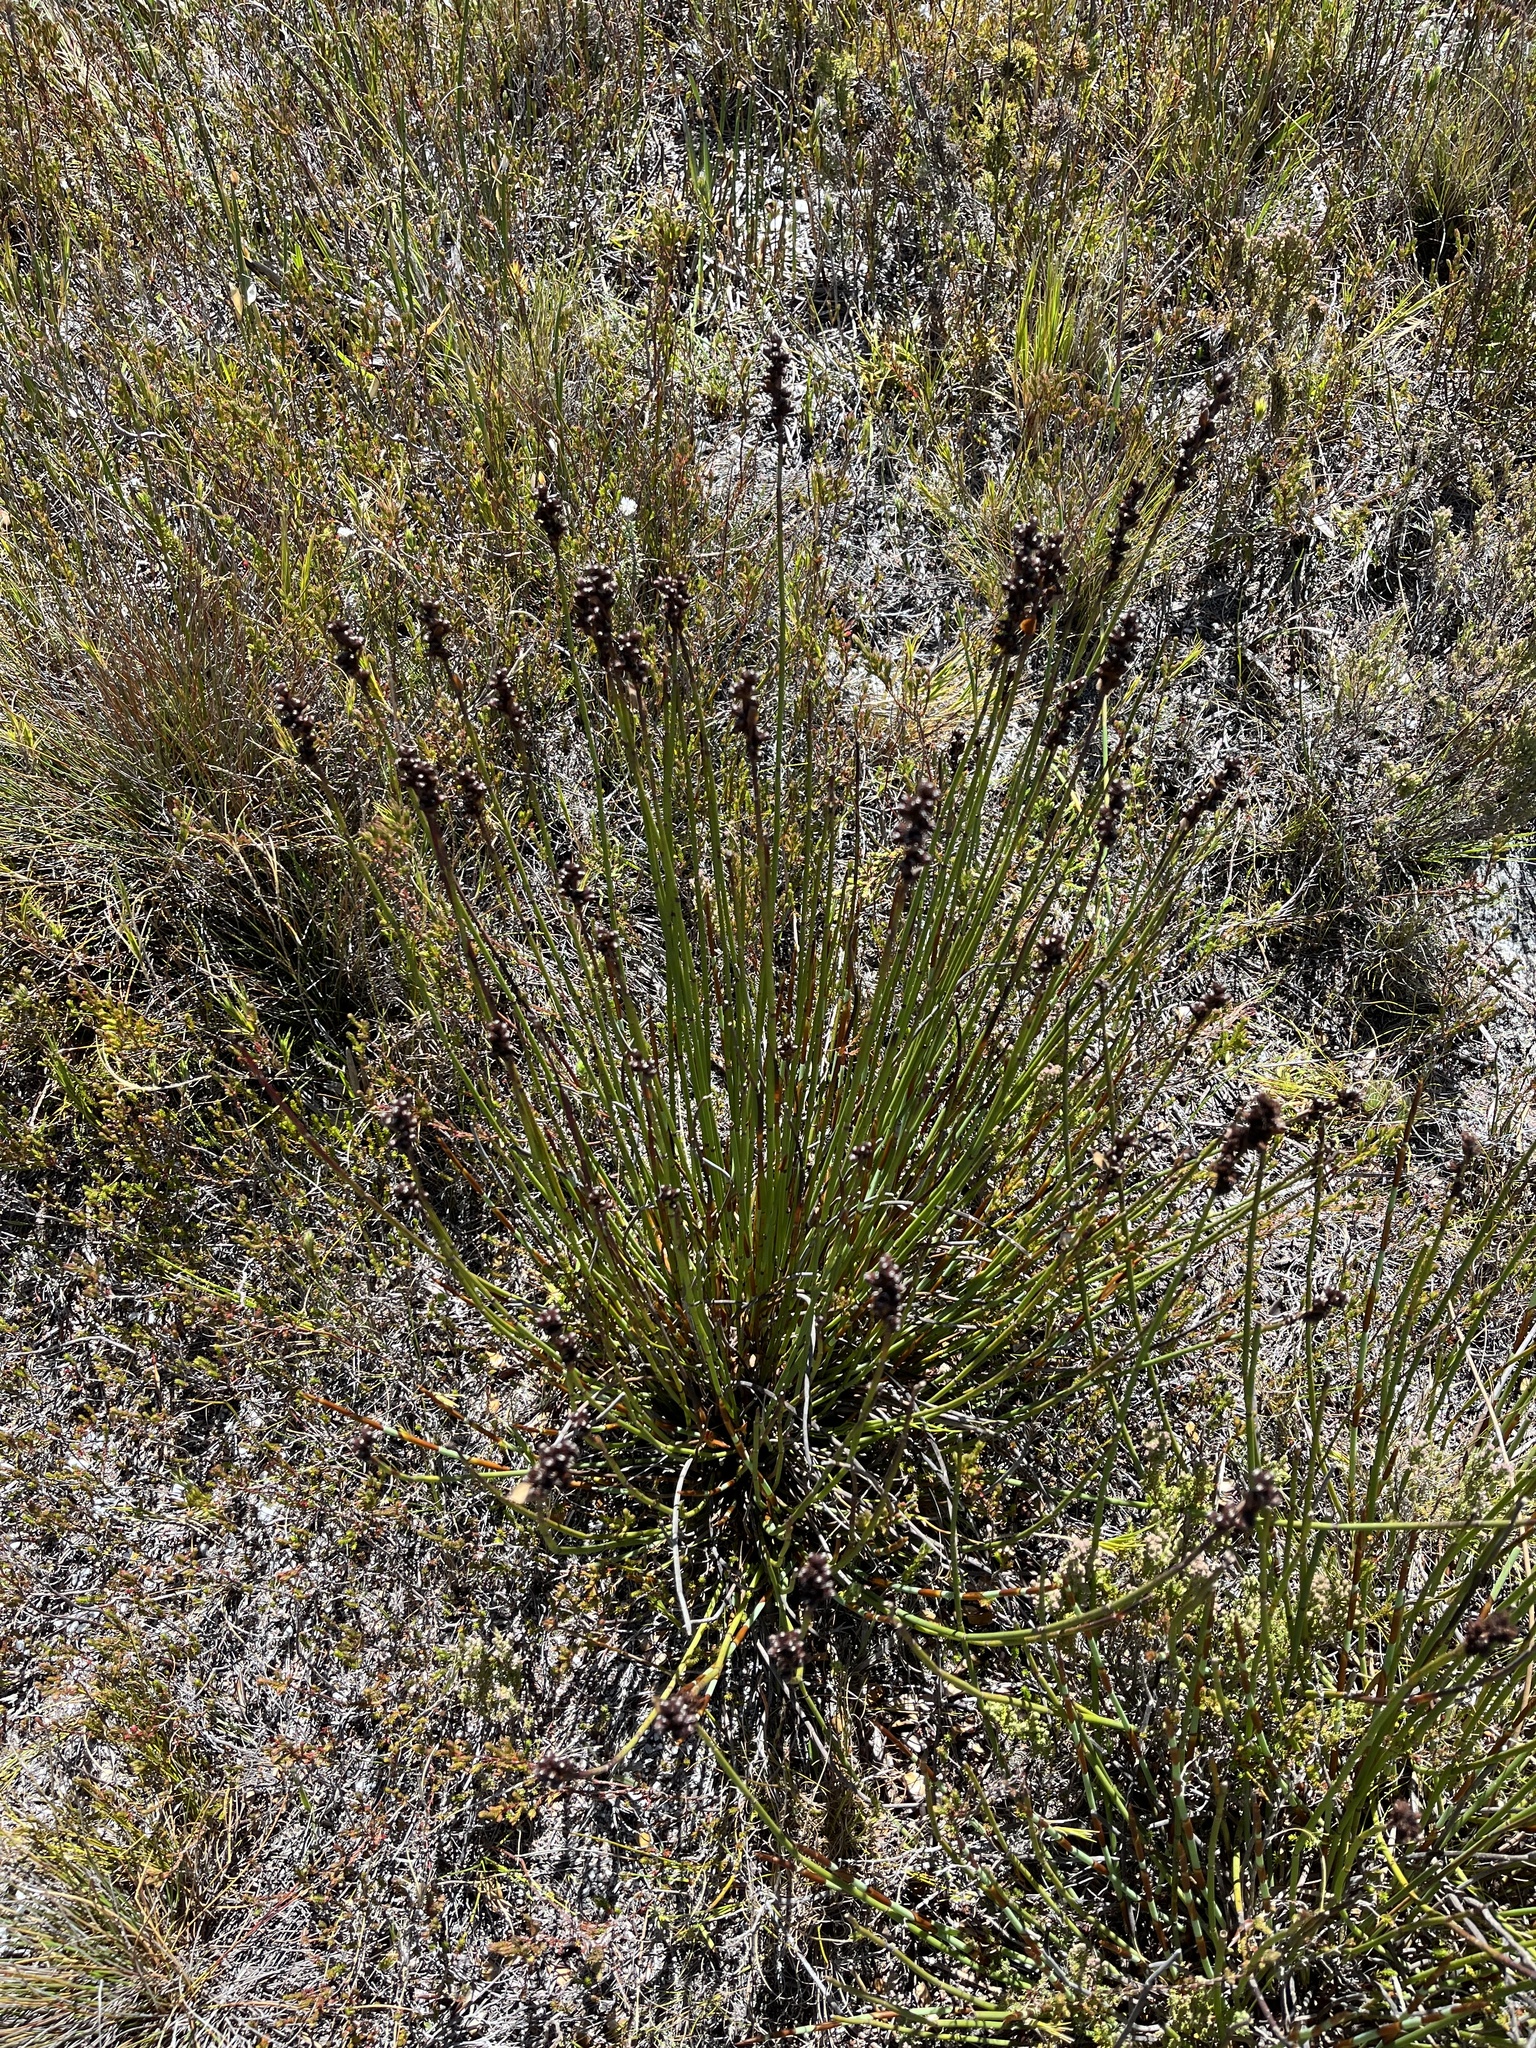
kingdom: Plantae
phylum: Tracheophyta
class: Liliopsida
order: Poales
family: Restionaceae
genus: Elegia
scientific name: Elegia marlothii
